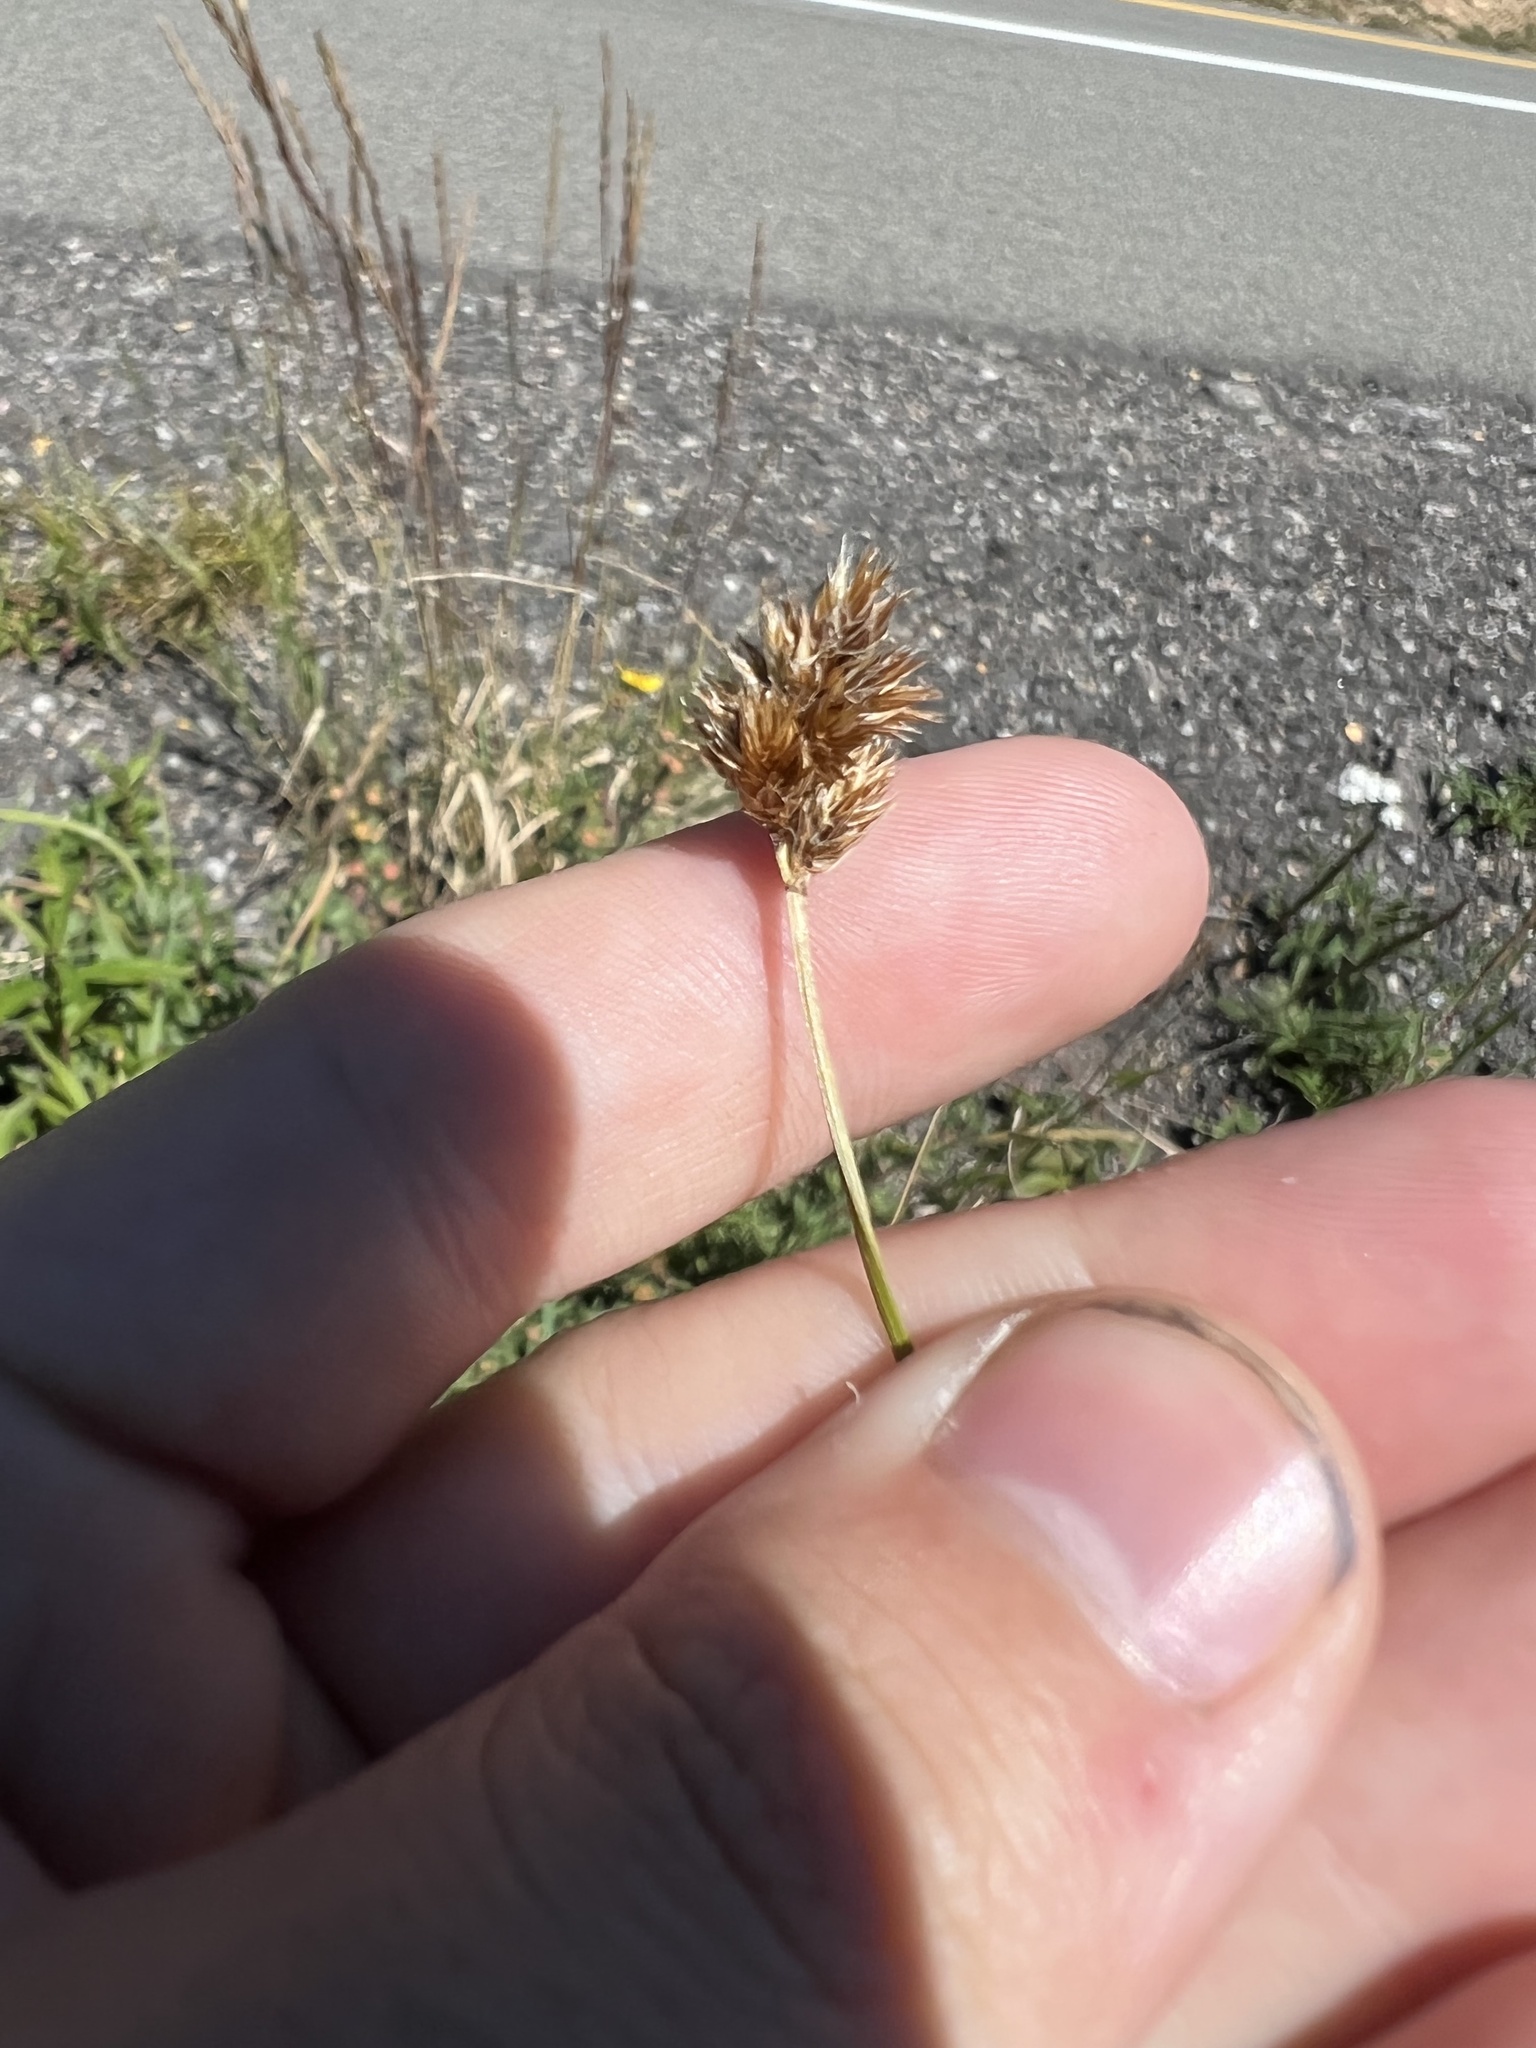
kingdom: Plantae
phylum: Tracheophyta
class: Liliopsida
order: Poales
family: Cyperaceae
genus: Carex
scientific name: Carex haydeniana
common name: Cloud sedge
